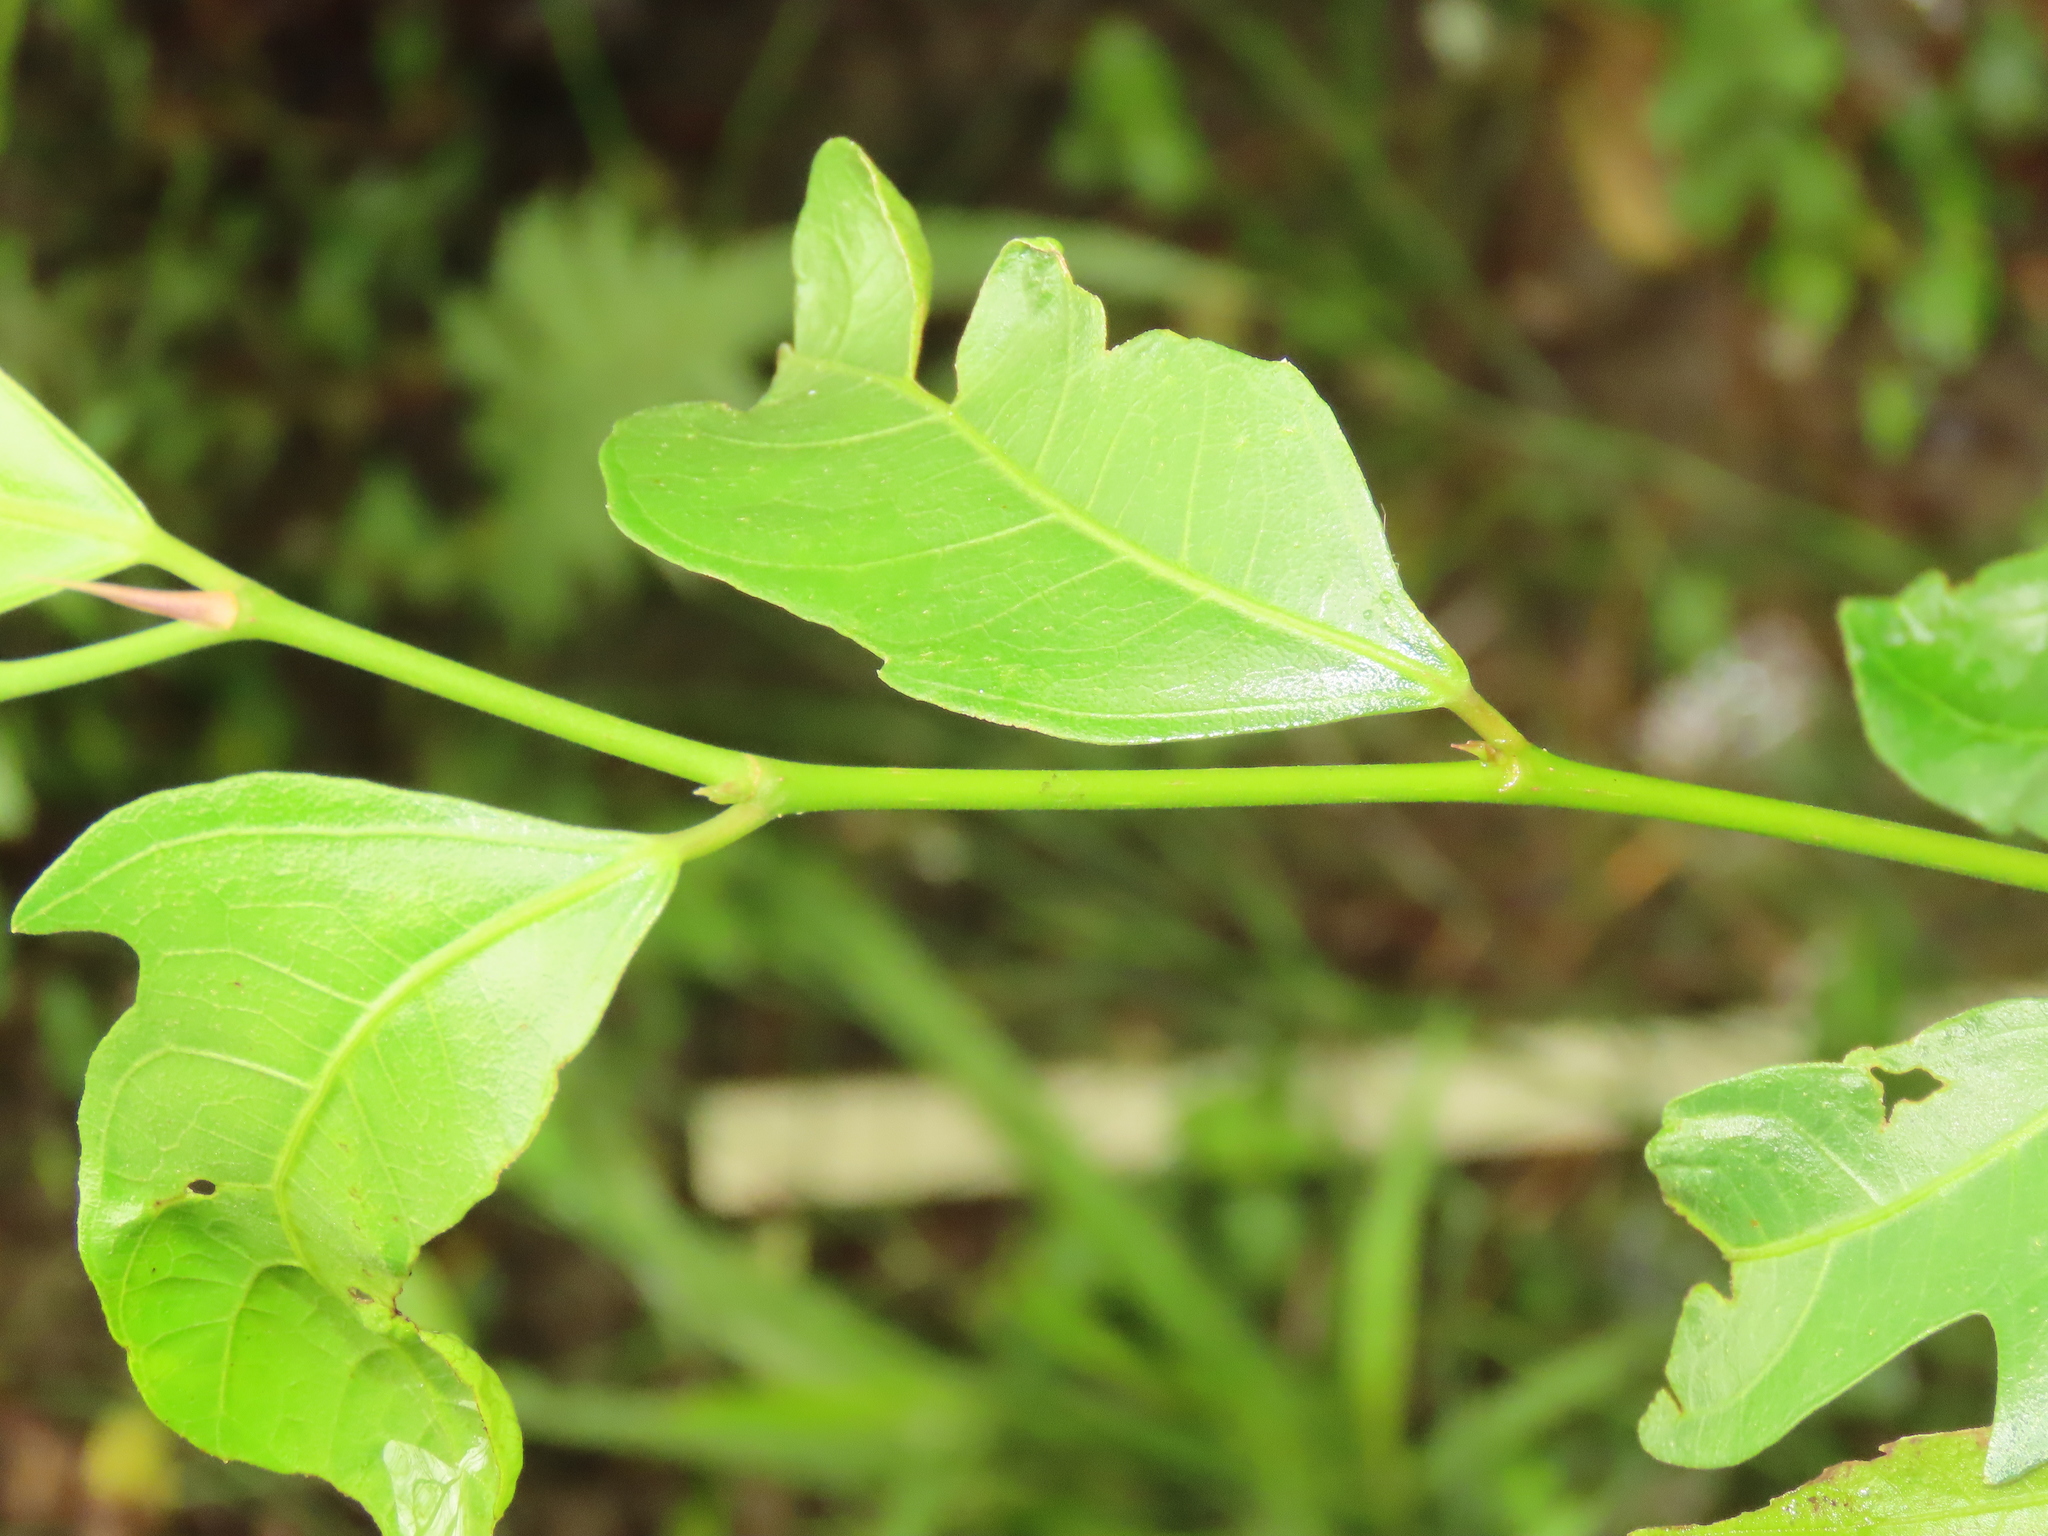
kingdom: Plantae
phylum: Tracheophyta
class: Magnoliopsida
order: Rosales
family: Moraceae
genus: Ficus
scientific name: Ficus ampelos
